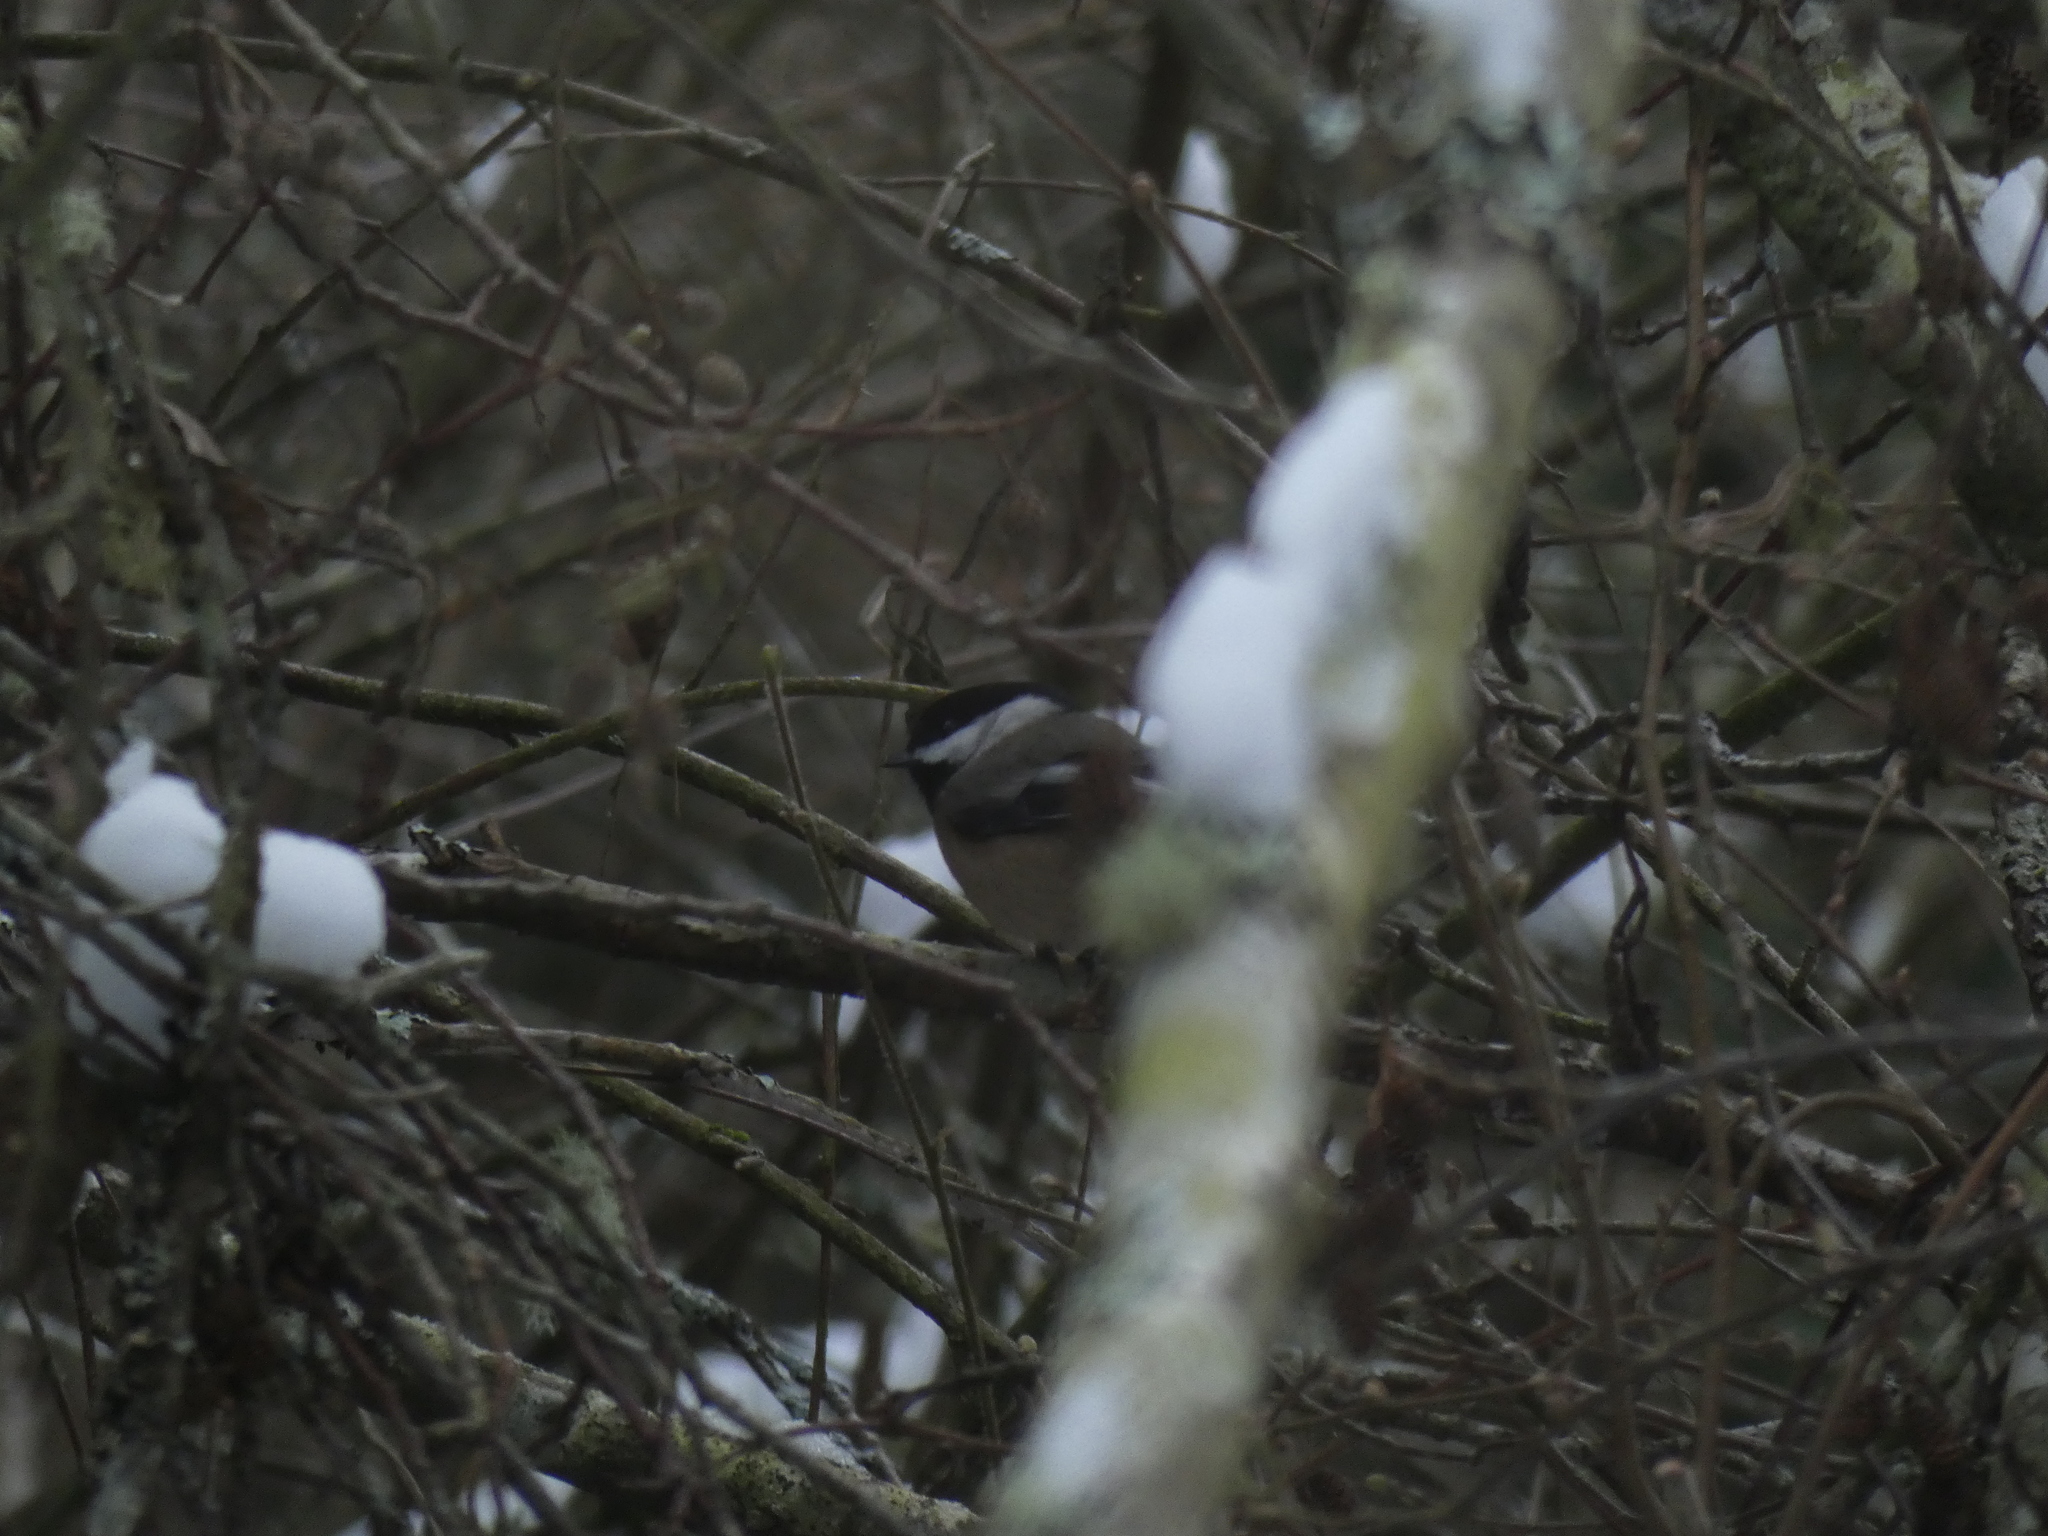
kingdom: Animalia
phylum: Chordata
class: Aves
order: Passeriformes
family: Paridae
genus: Poecile
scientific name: Poecile atricapillus
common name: Black-capped chickadee
